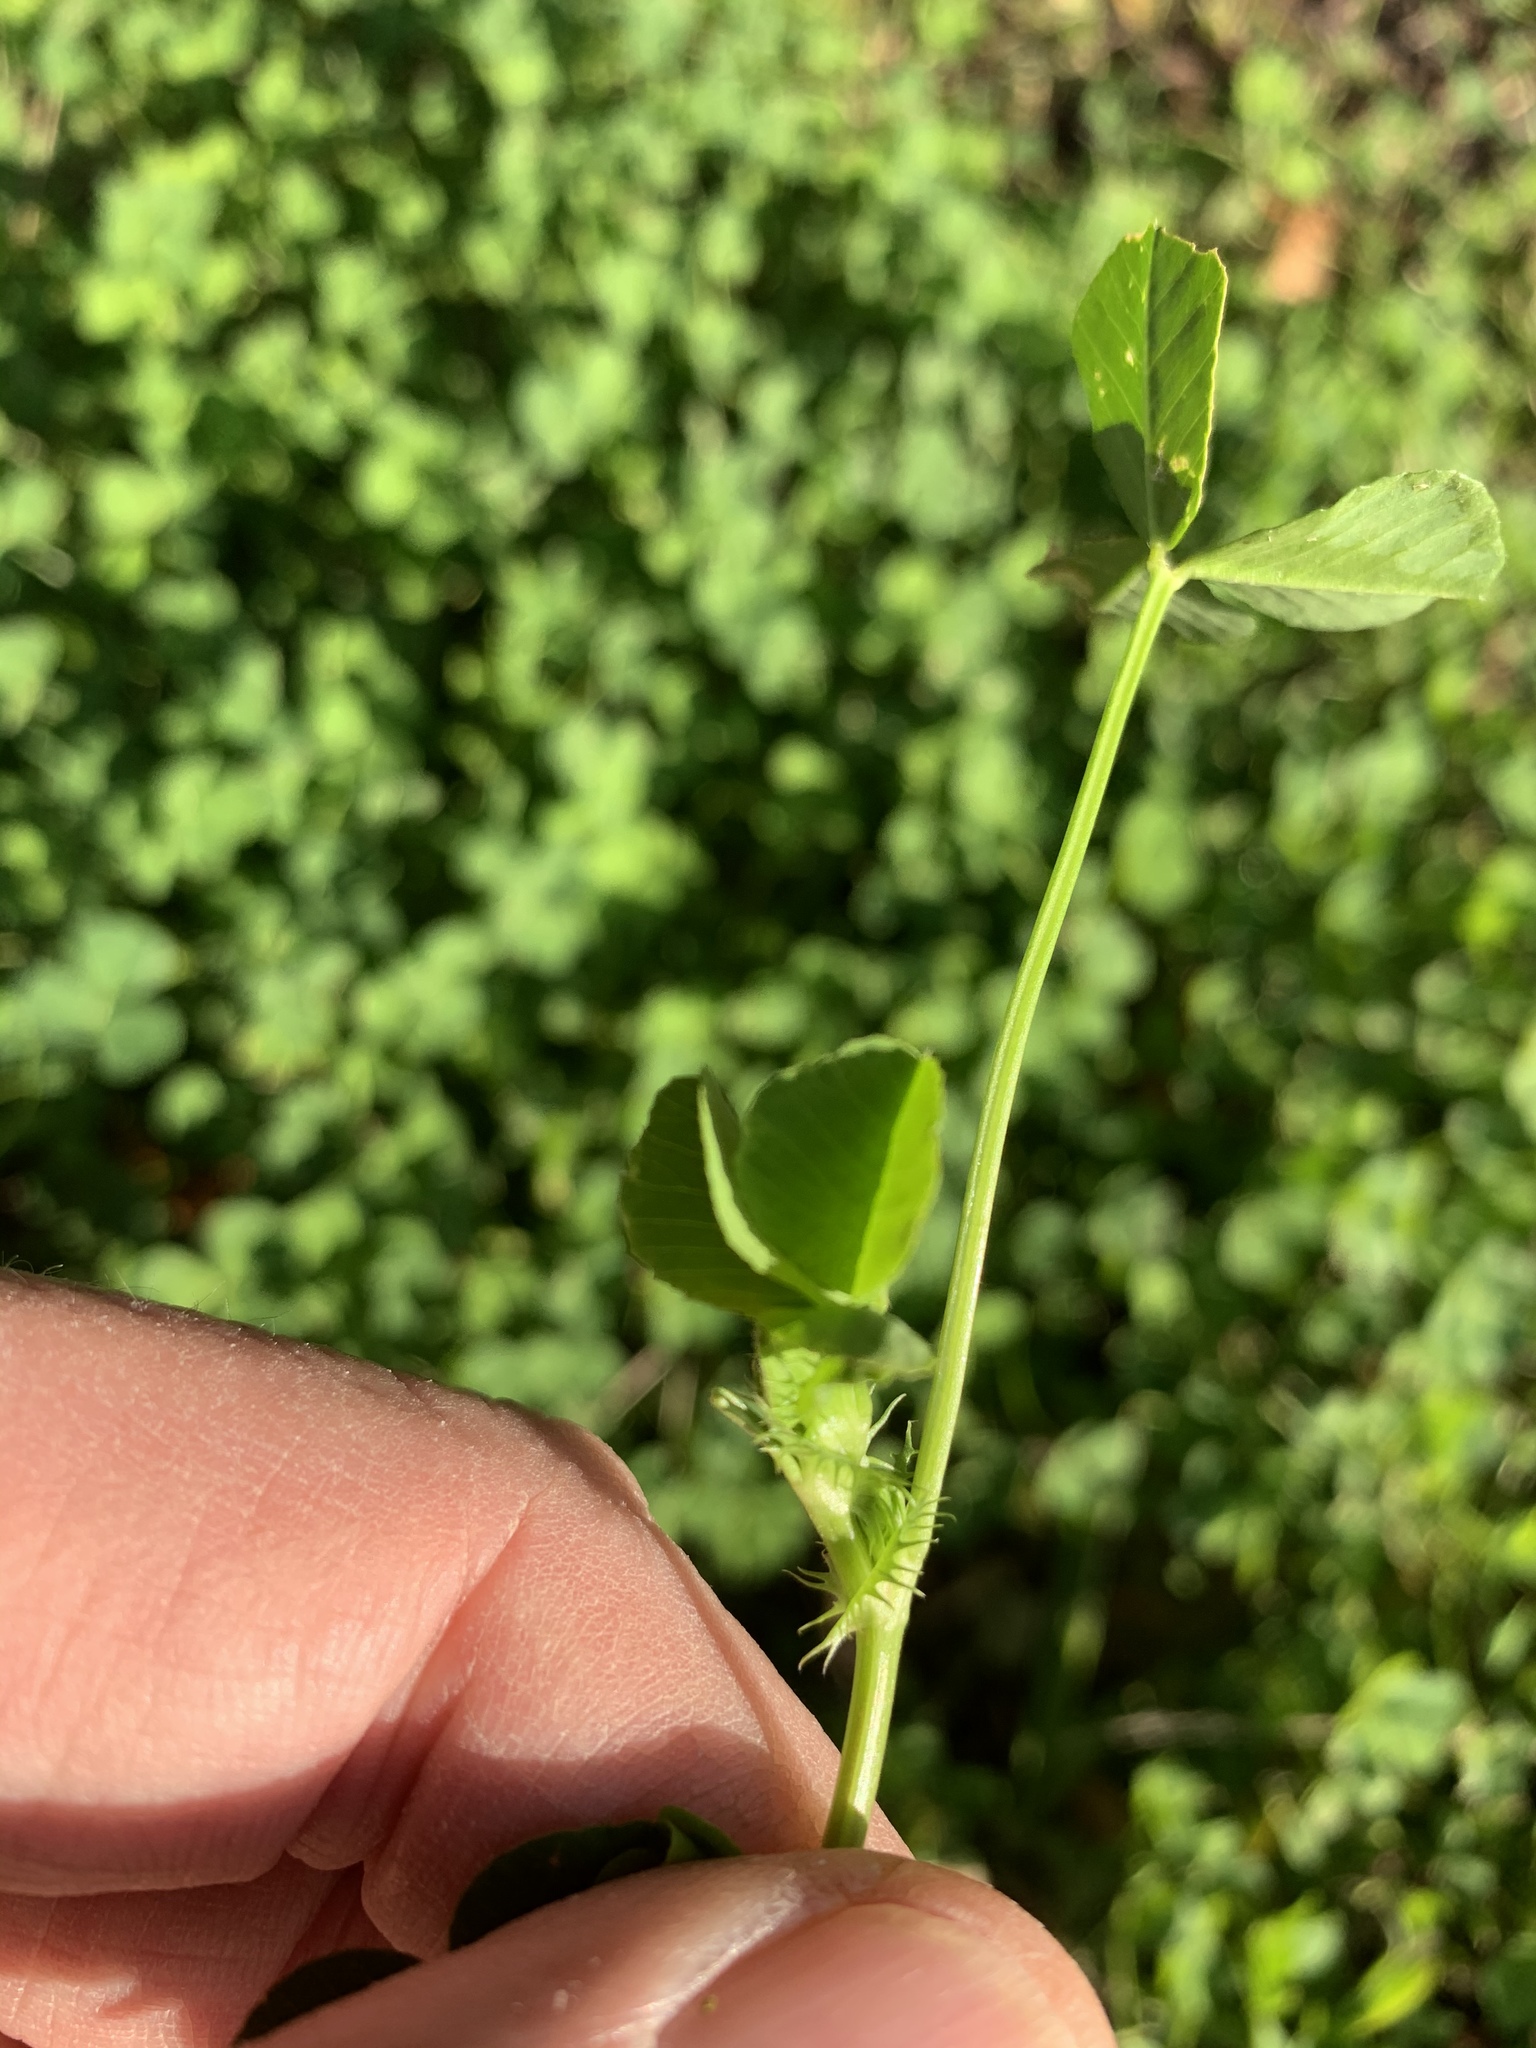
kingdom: Plantae
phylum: Tracheophyta
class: Magnoliopsida
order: Fabales
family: Fabaceae
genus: Medicago
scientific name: Medicago polymorpha
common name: Burclover
